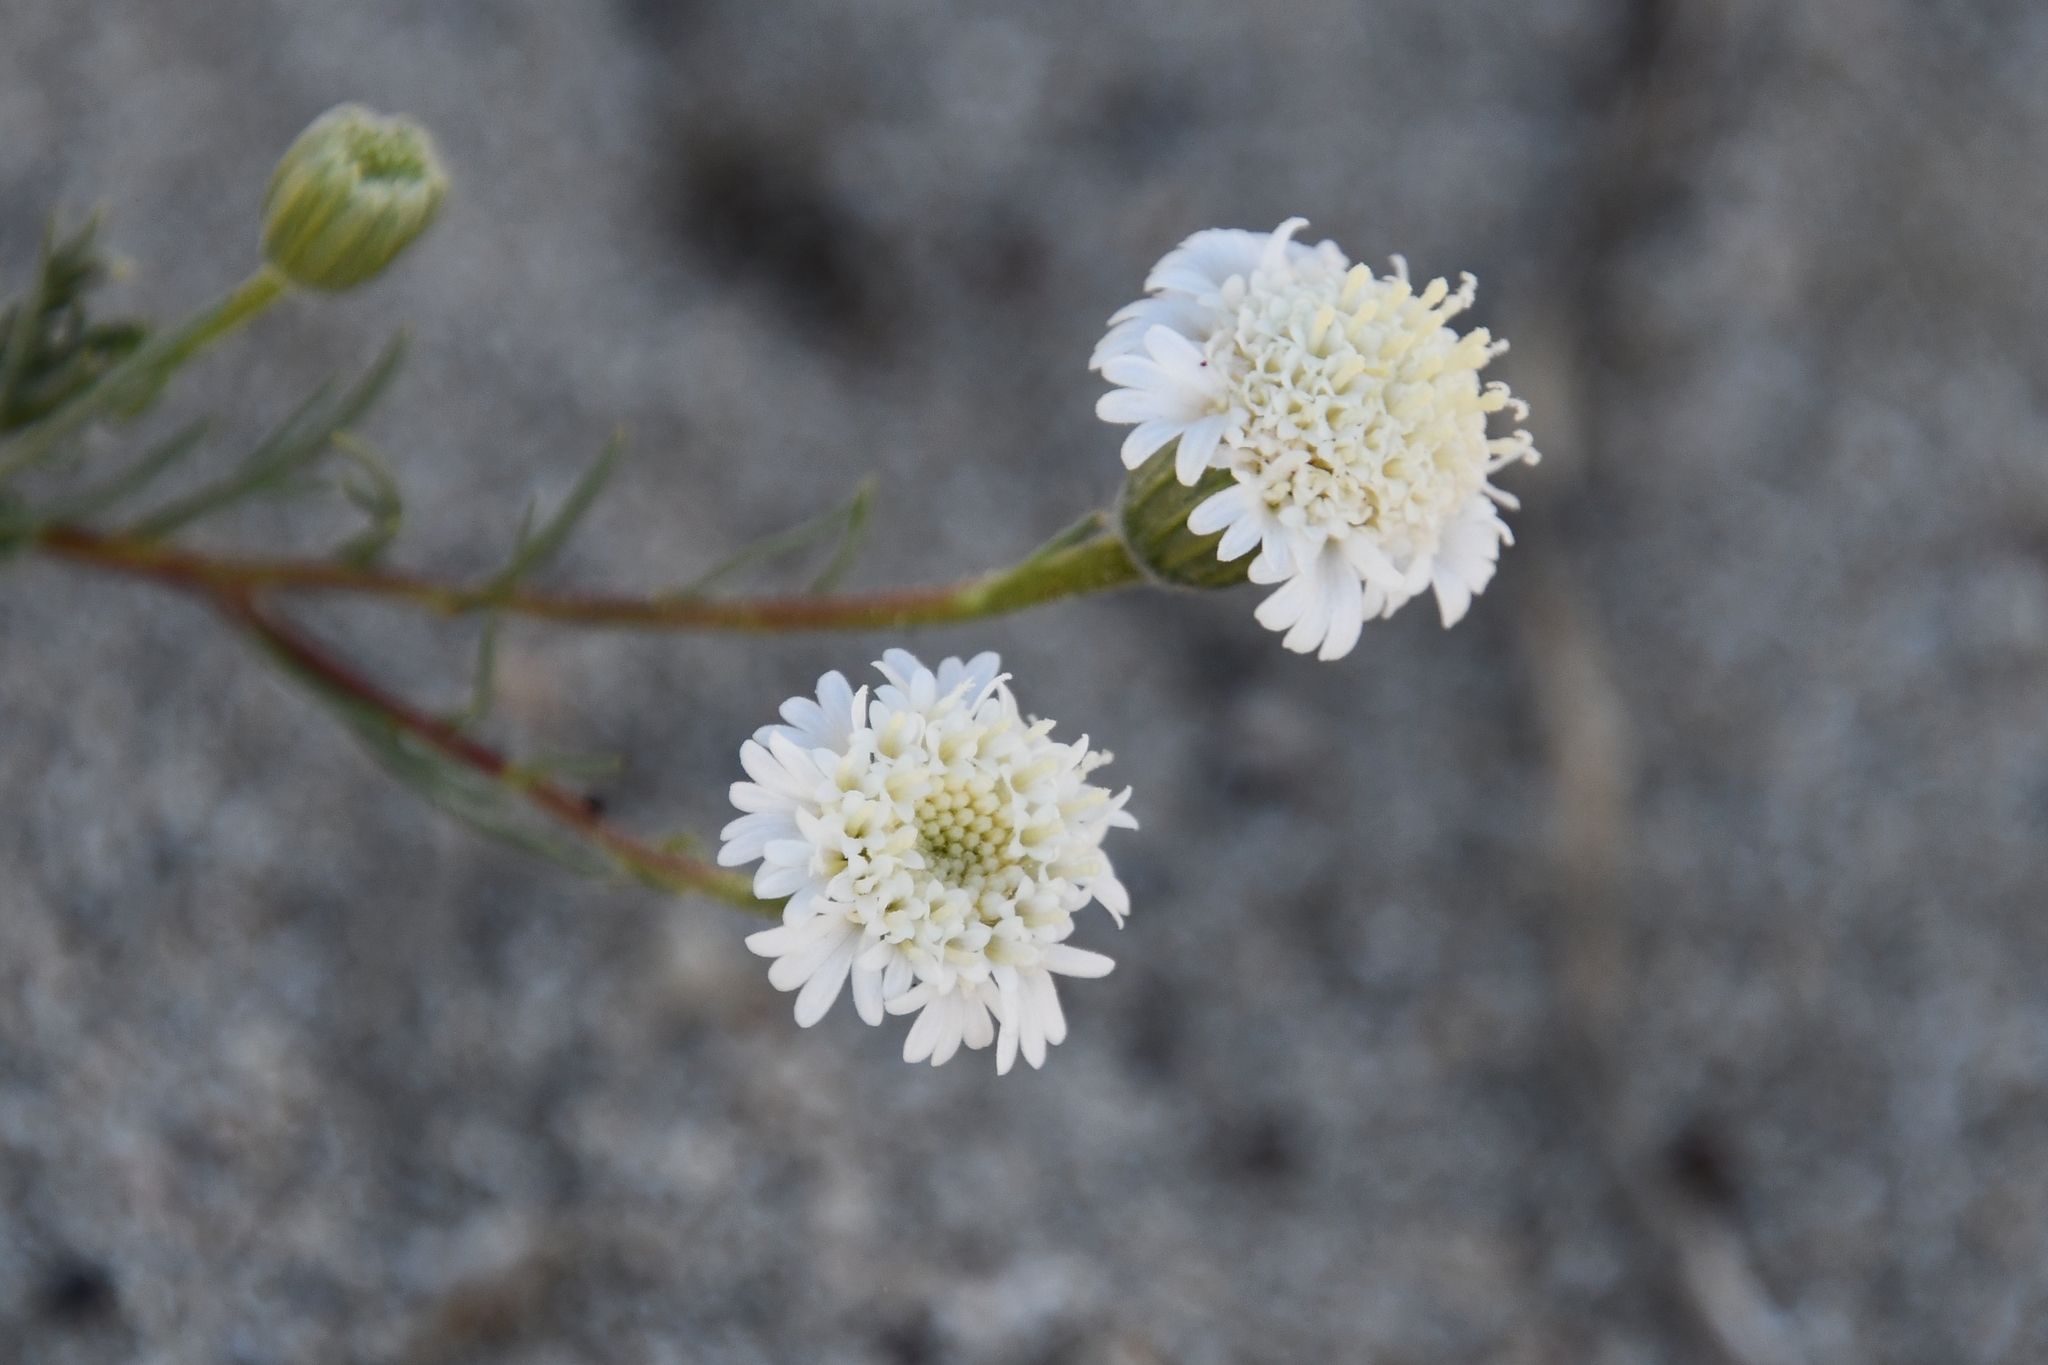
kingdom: Plantae
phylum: Tracheophyta
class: Magnoliopsida
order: Asterales
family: Asteraceae
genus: Chaenactis
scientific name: Chaenactis fremontii
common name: Fremont pincushion
